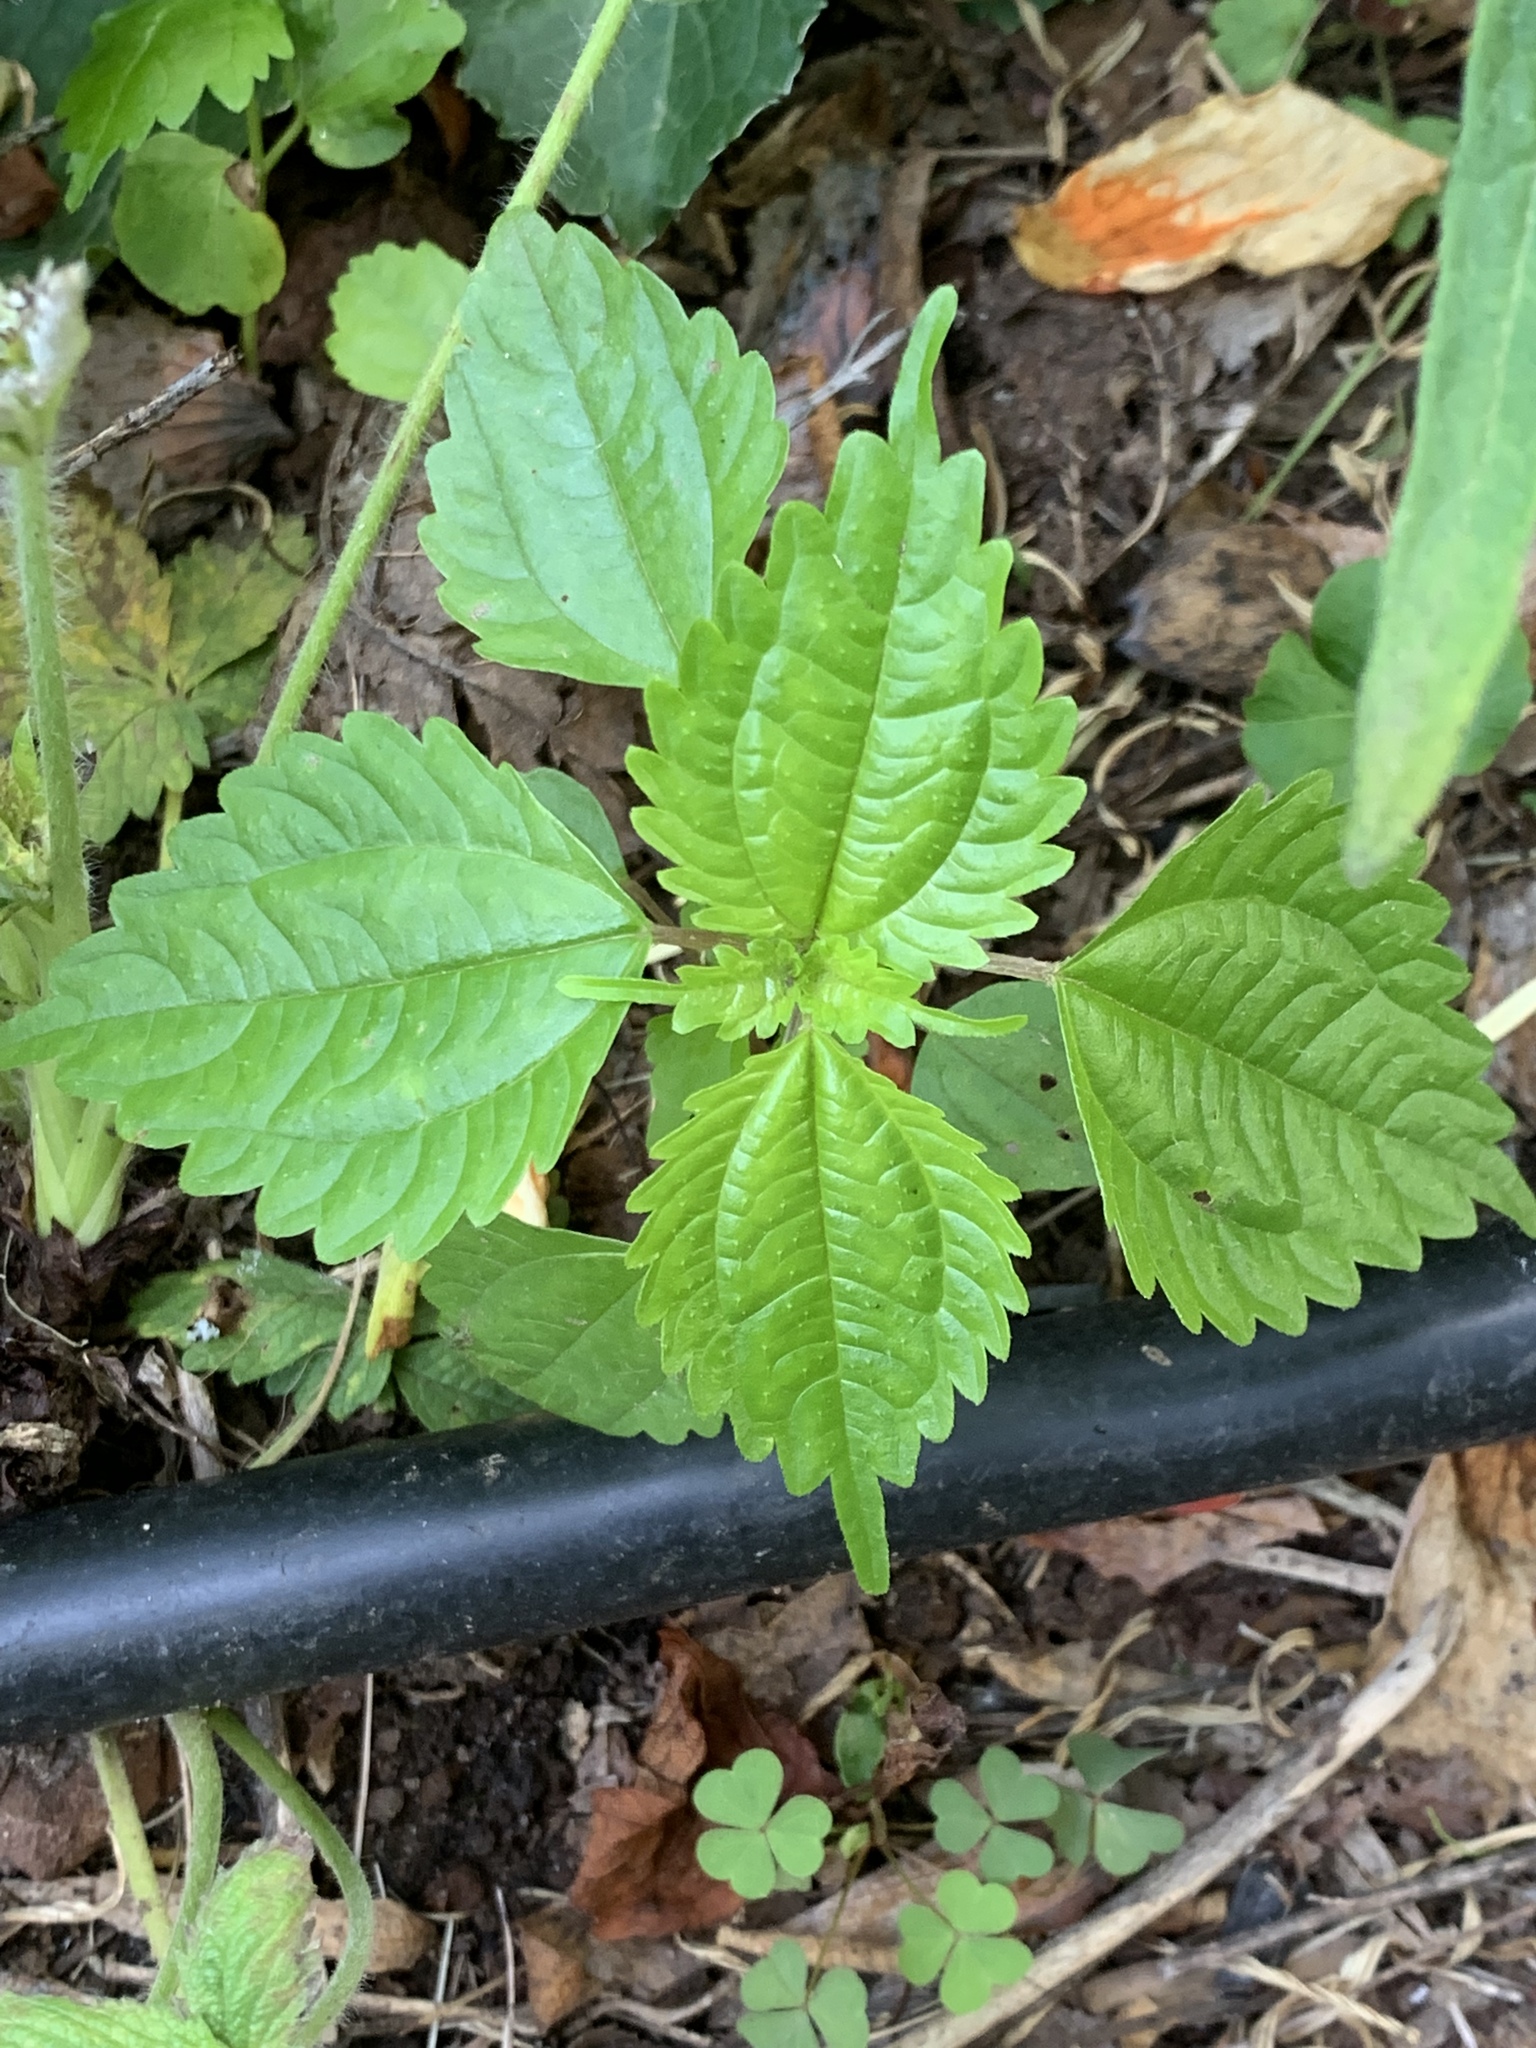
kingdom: Plantae
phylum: Tracheophyta
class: Magnoliopsida
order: Rosales
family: Urticaceae
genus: Pilea
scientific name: Pilea pumila
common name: Clearweed
